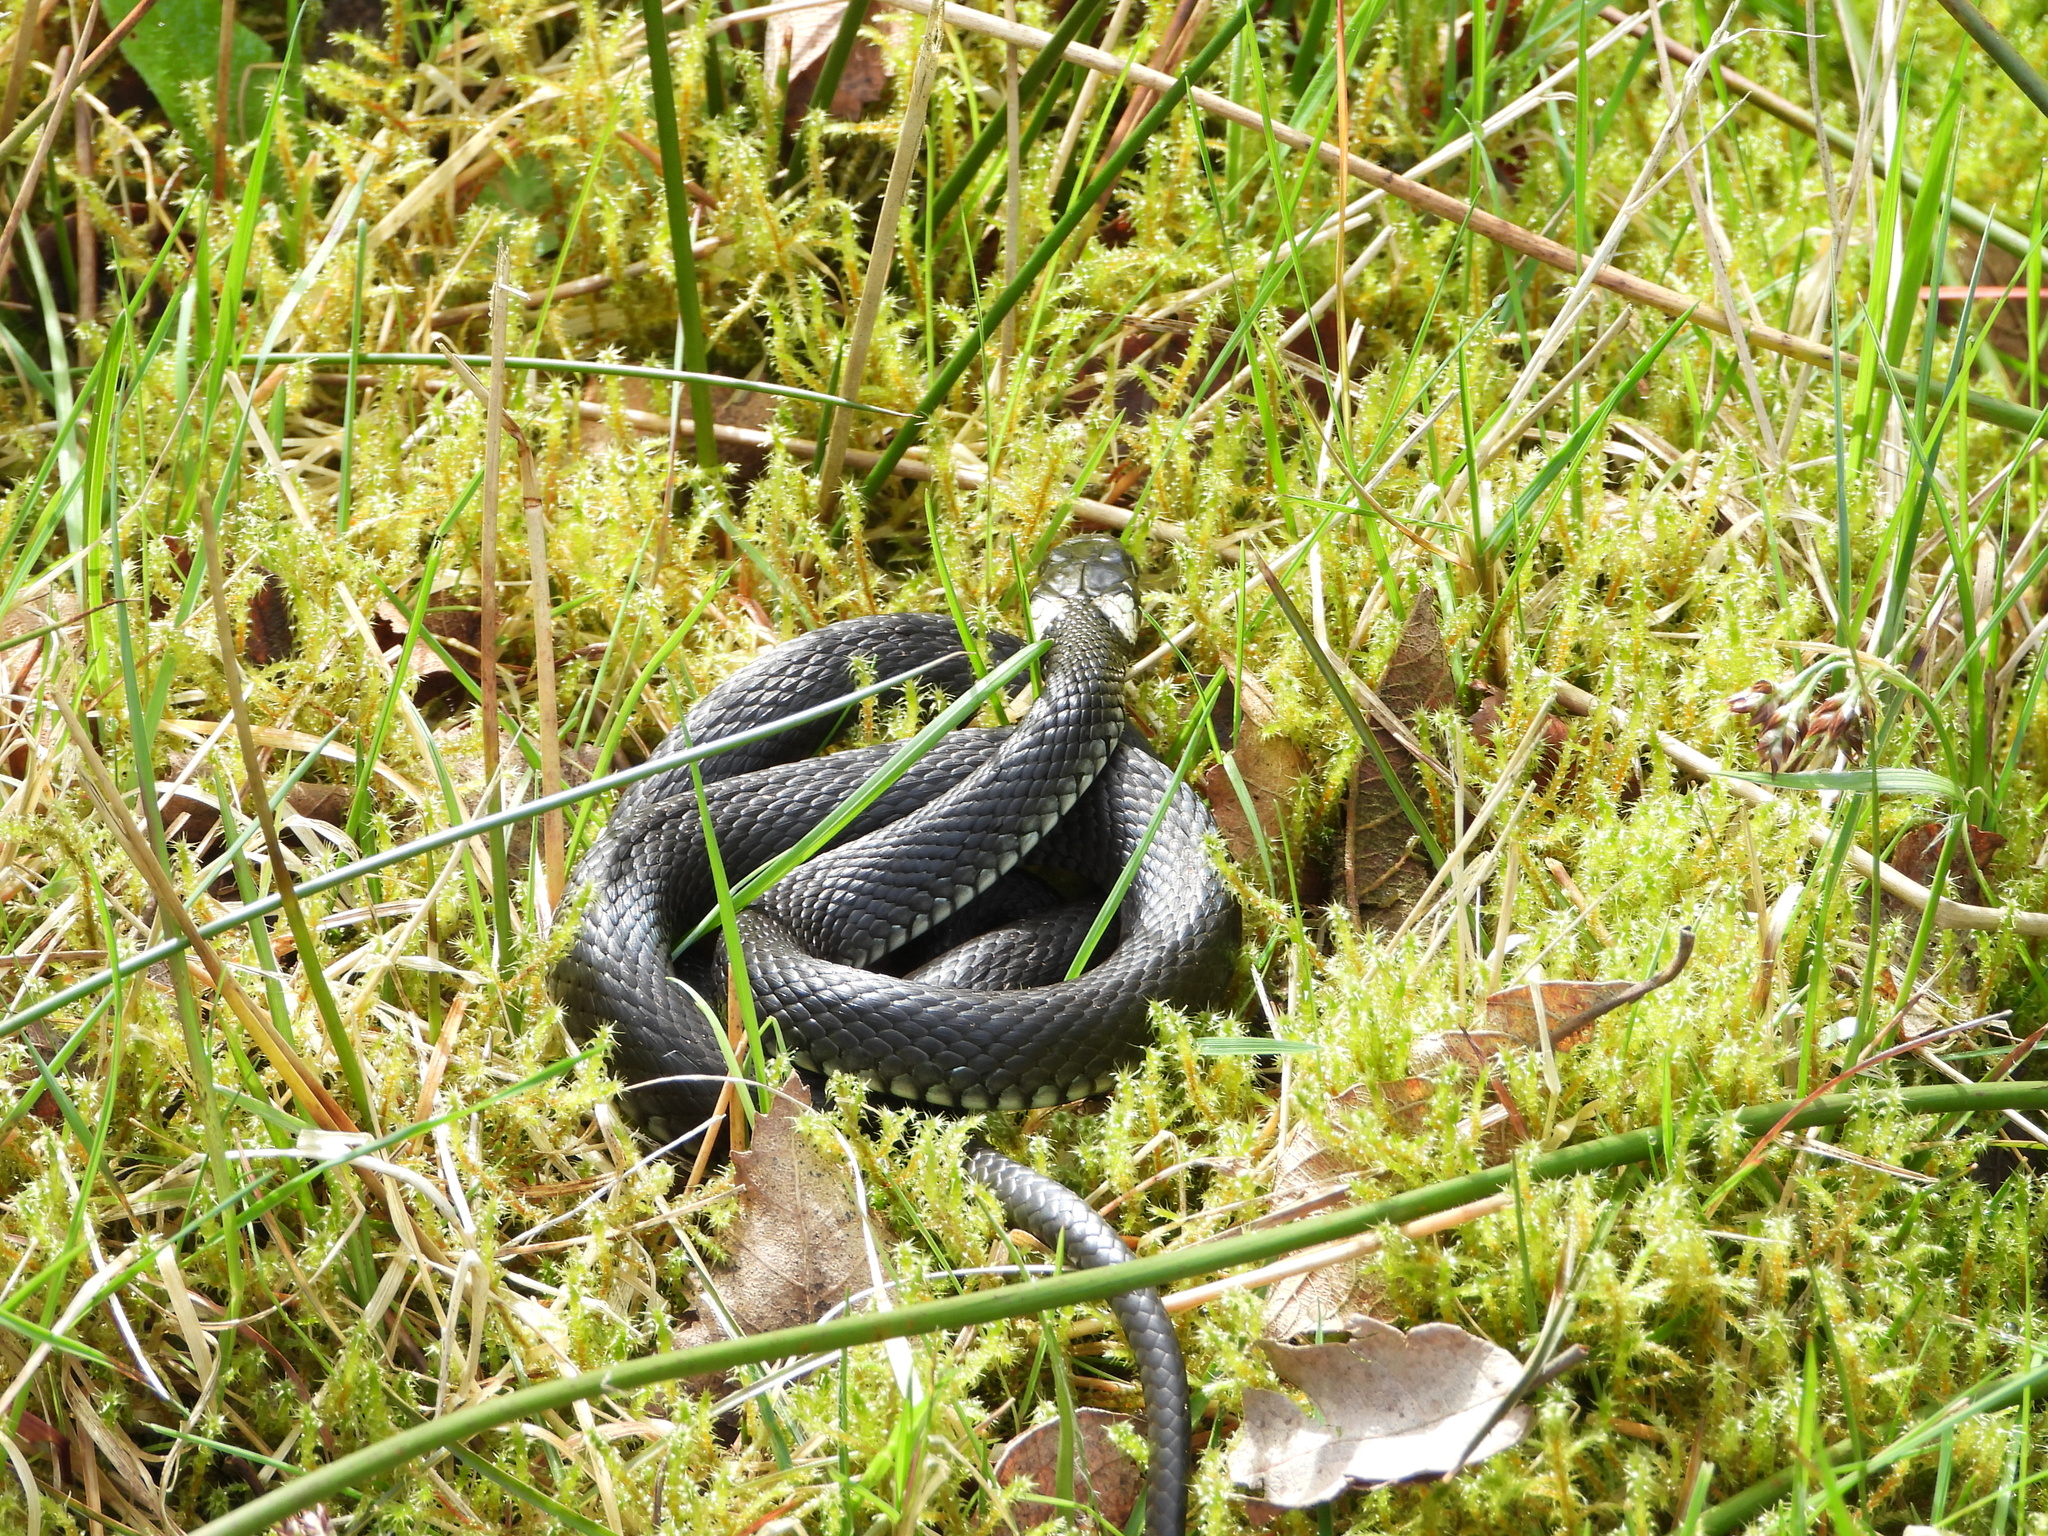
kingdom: Animalia
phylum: Chordata
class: Squamata
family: Colubridae
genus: Natrix
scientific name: Natrix natrix
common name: Grass snake
